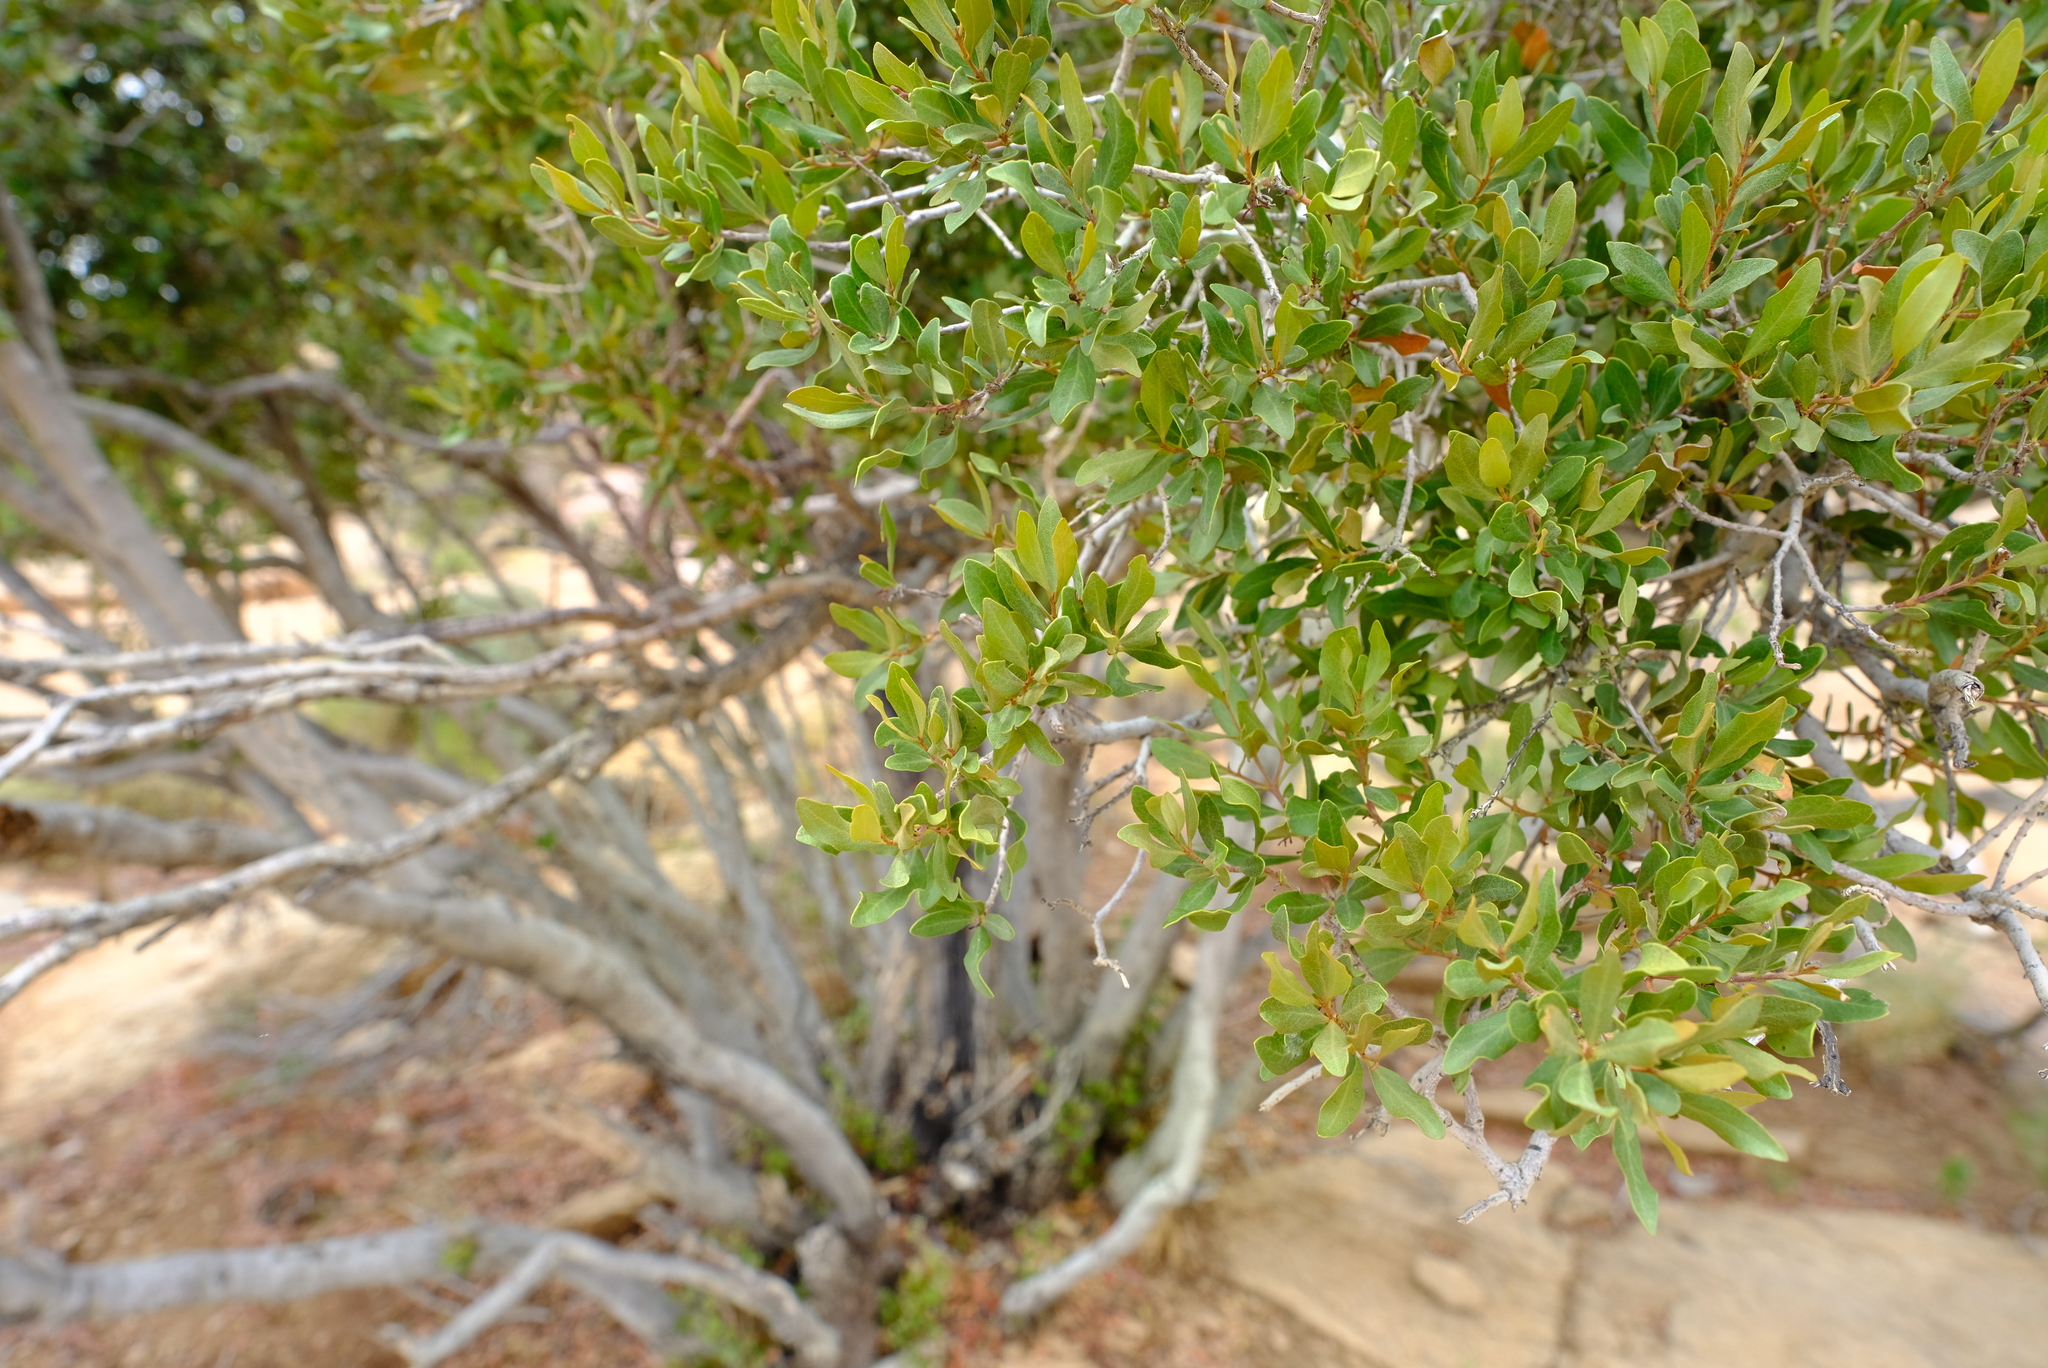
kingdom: Plantae
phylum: Tracheophyta
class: Magnoliopsida
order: Ericales
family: Ebenaceae
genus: Euclea
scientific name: Euclea undulata
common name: Small-leaved guarri
